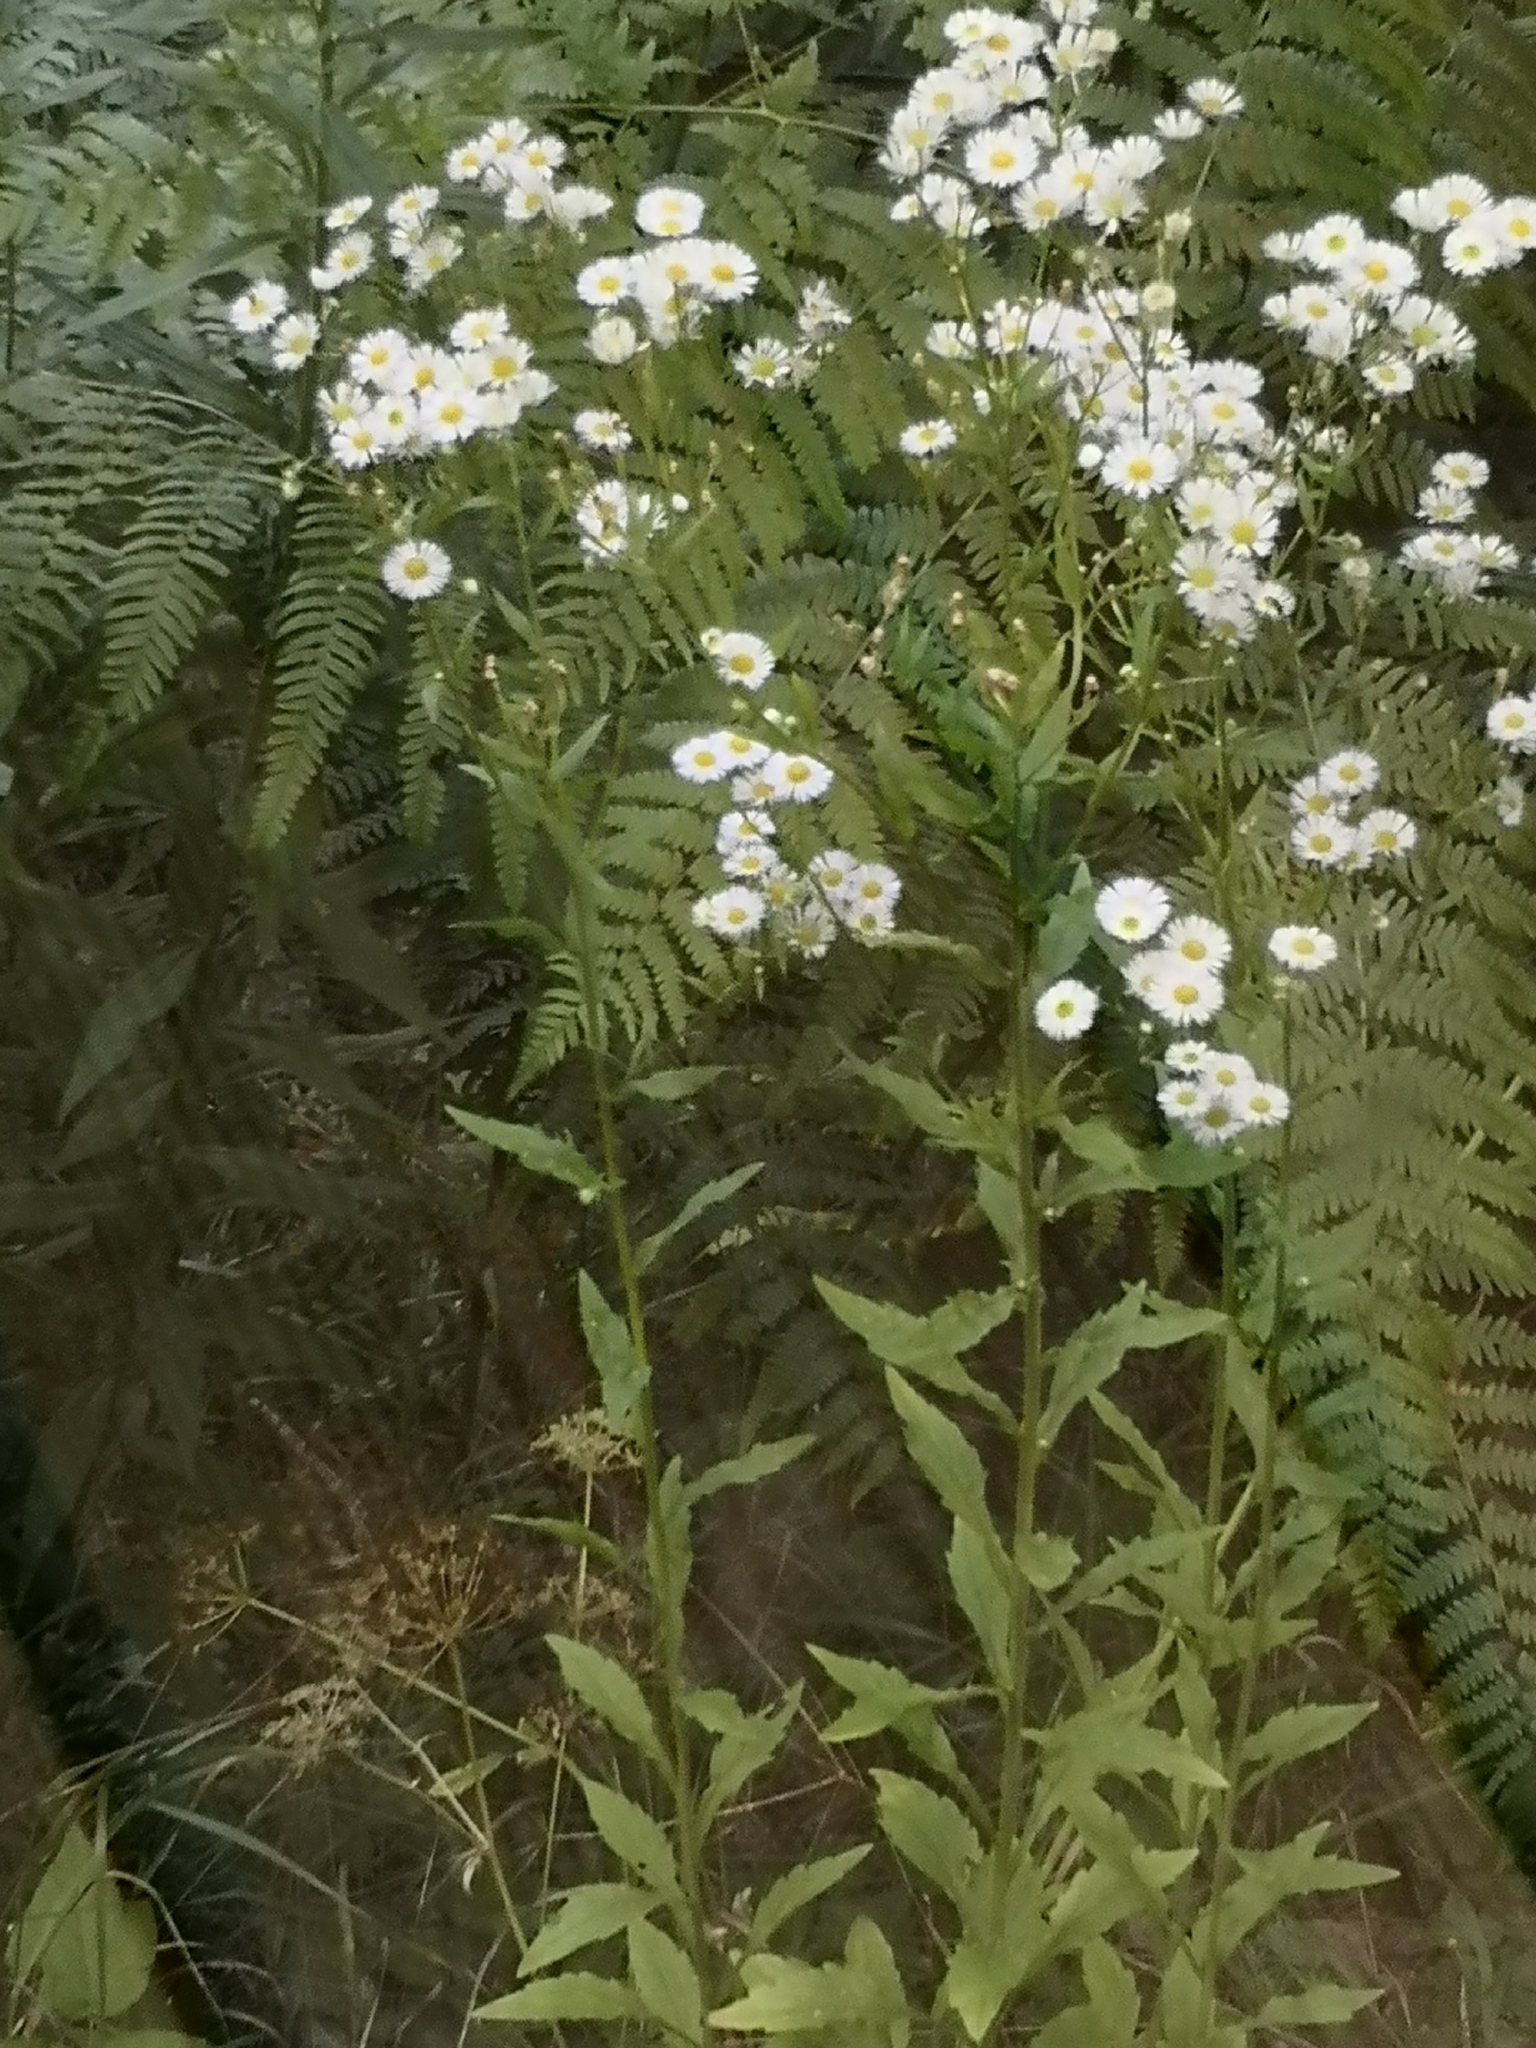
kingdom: Plantae
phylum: Tracheophyta
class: Magnoliopsida
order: Asterales
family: Asteraceae
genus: Erigeron
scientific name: Erigeron annuus
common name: Tall fleabane
